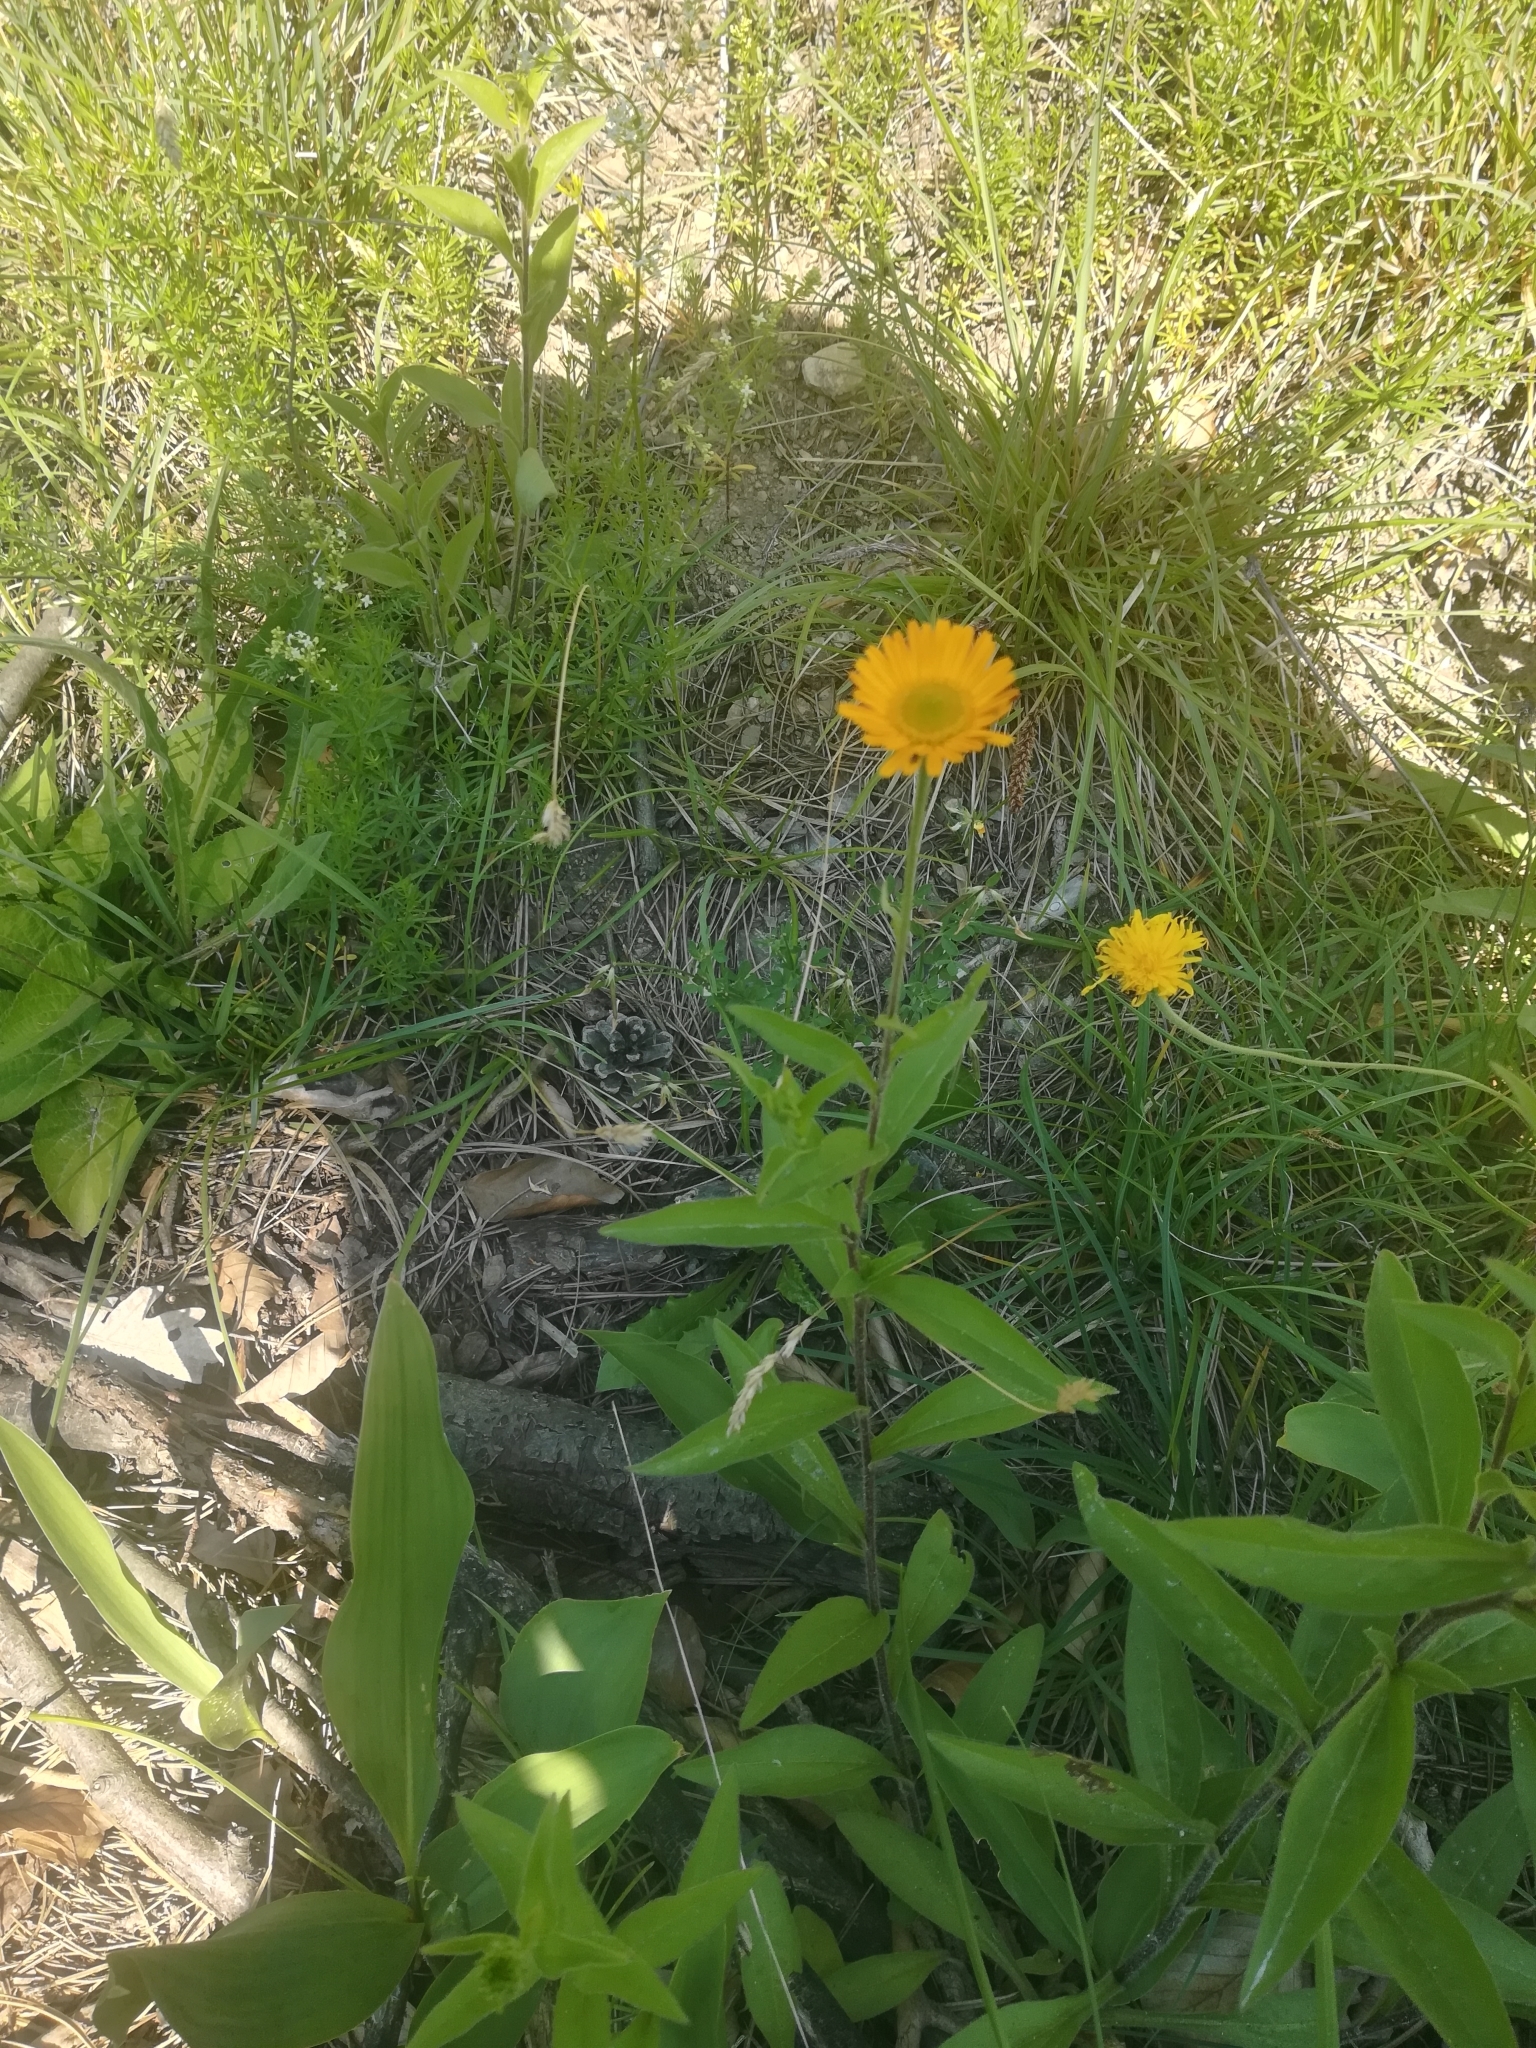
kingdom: Plantae
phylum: Tracheophyta
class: Magnoliopsida
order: Asterales
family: Asteraceae
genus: Buphthalmum
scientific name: Buphthalmum salicifolium
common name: Willow-leaved yellow-oxeye
